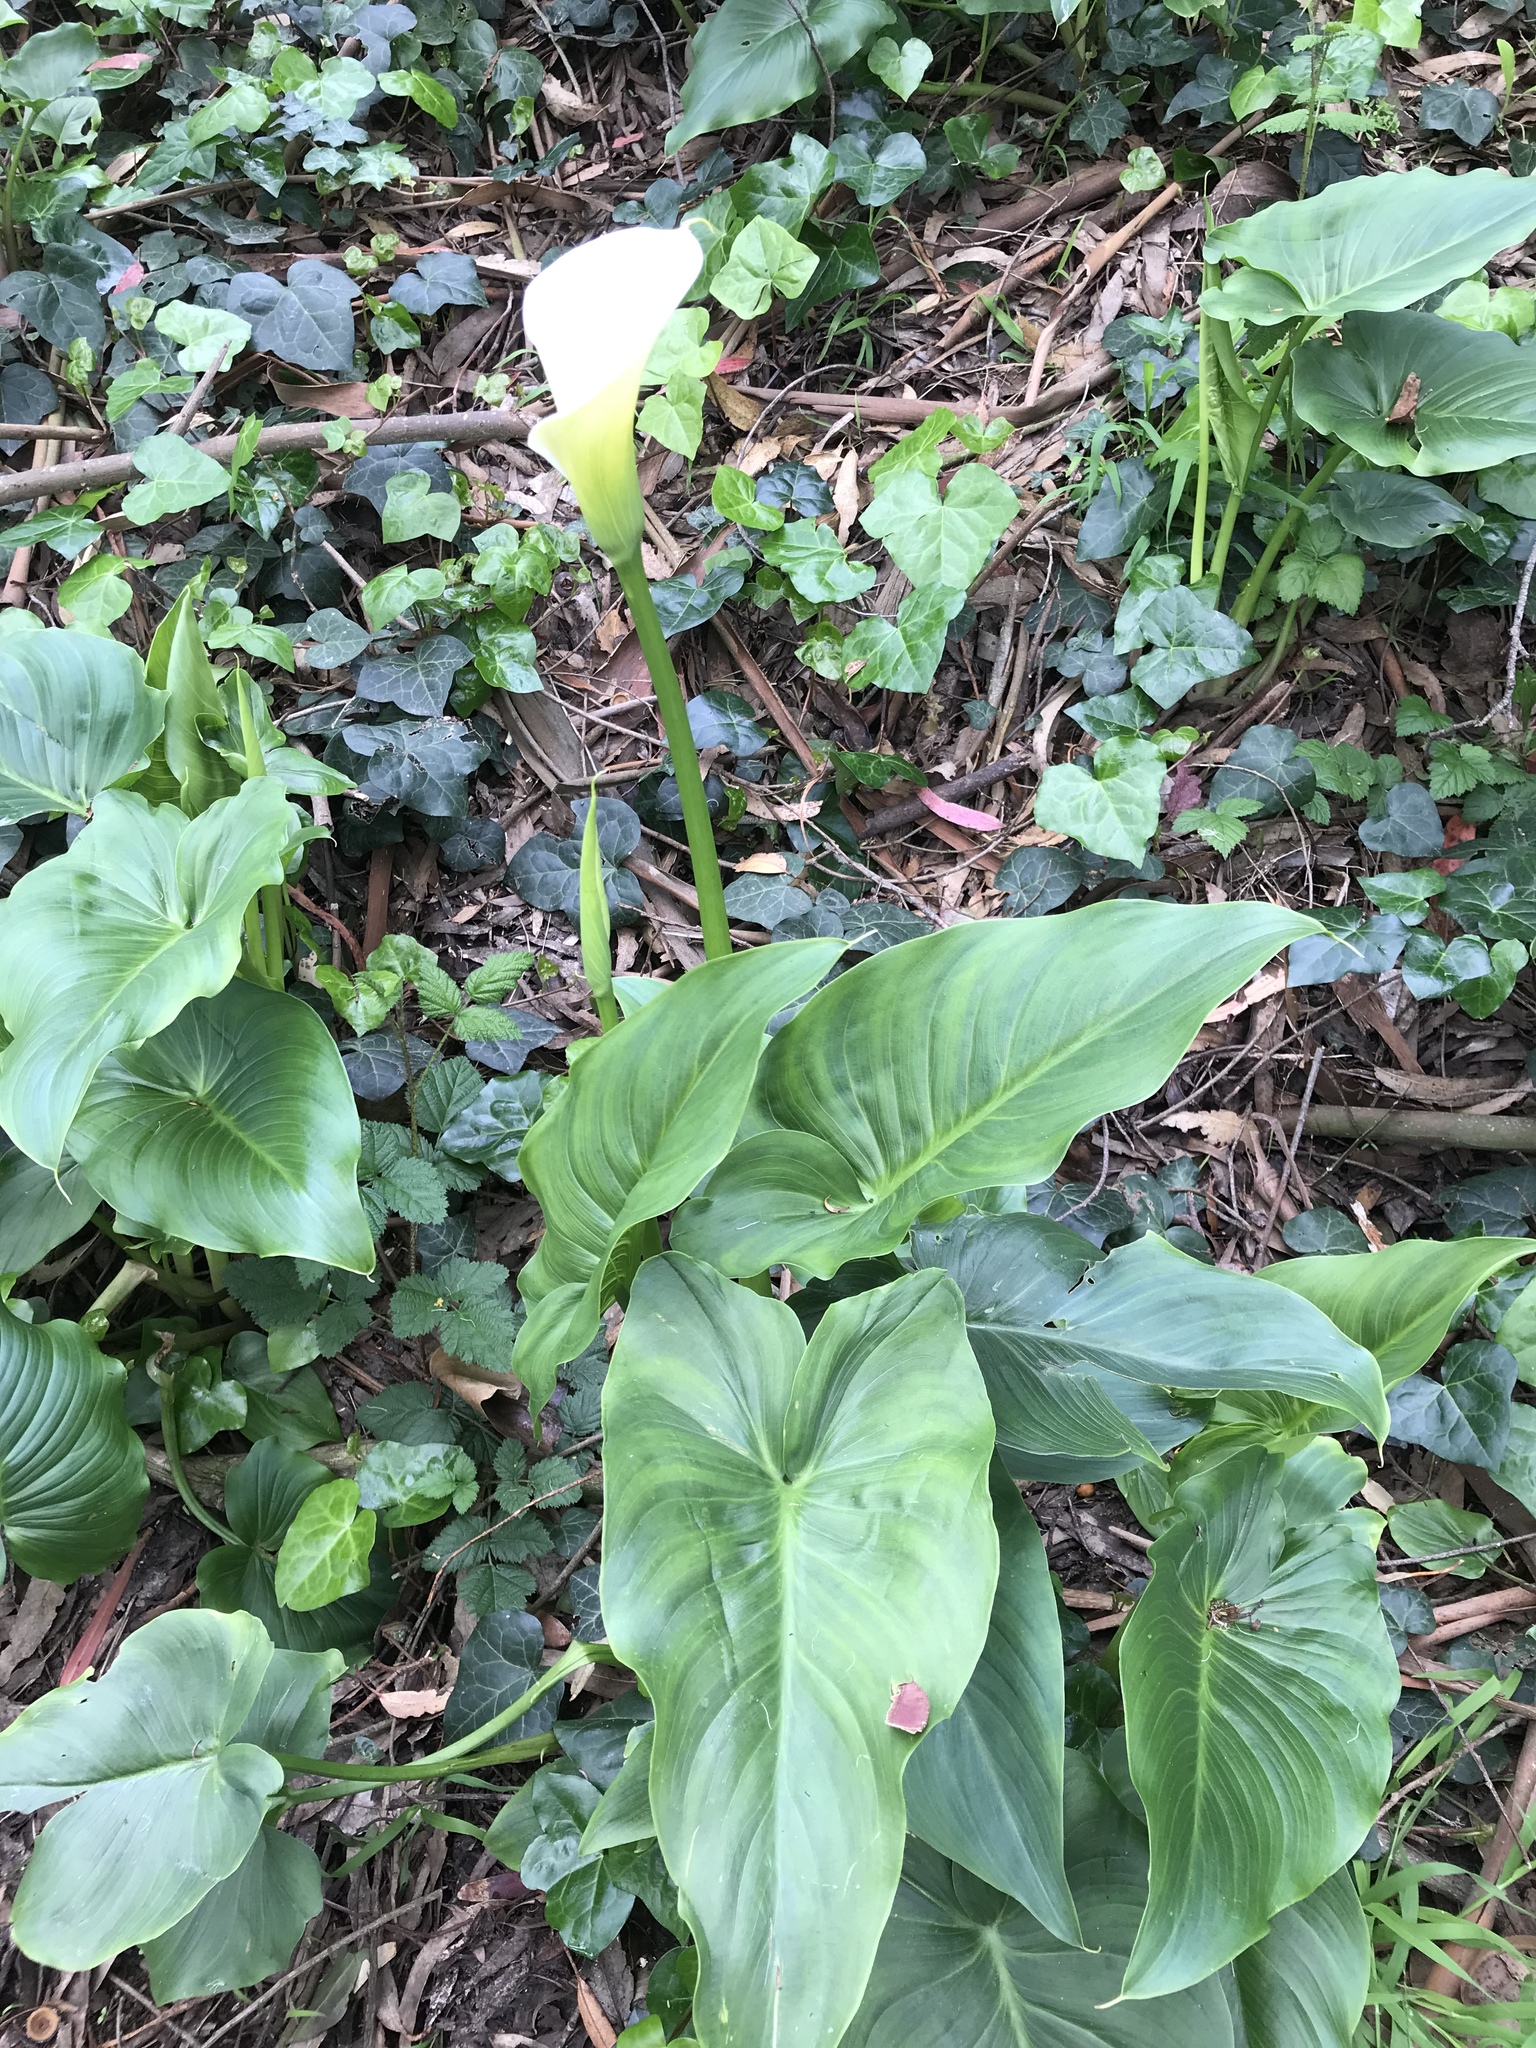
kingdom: Plantae
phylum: Tracheophyta
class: Liliopsida
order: Alismatales
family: Araceae
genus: Zantedeschia
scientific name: Zantedeschia aethiopica
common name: Altar-lily
